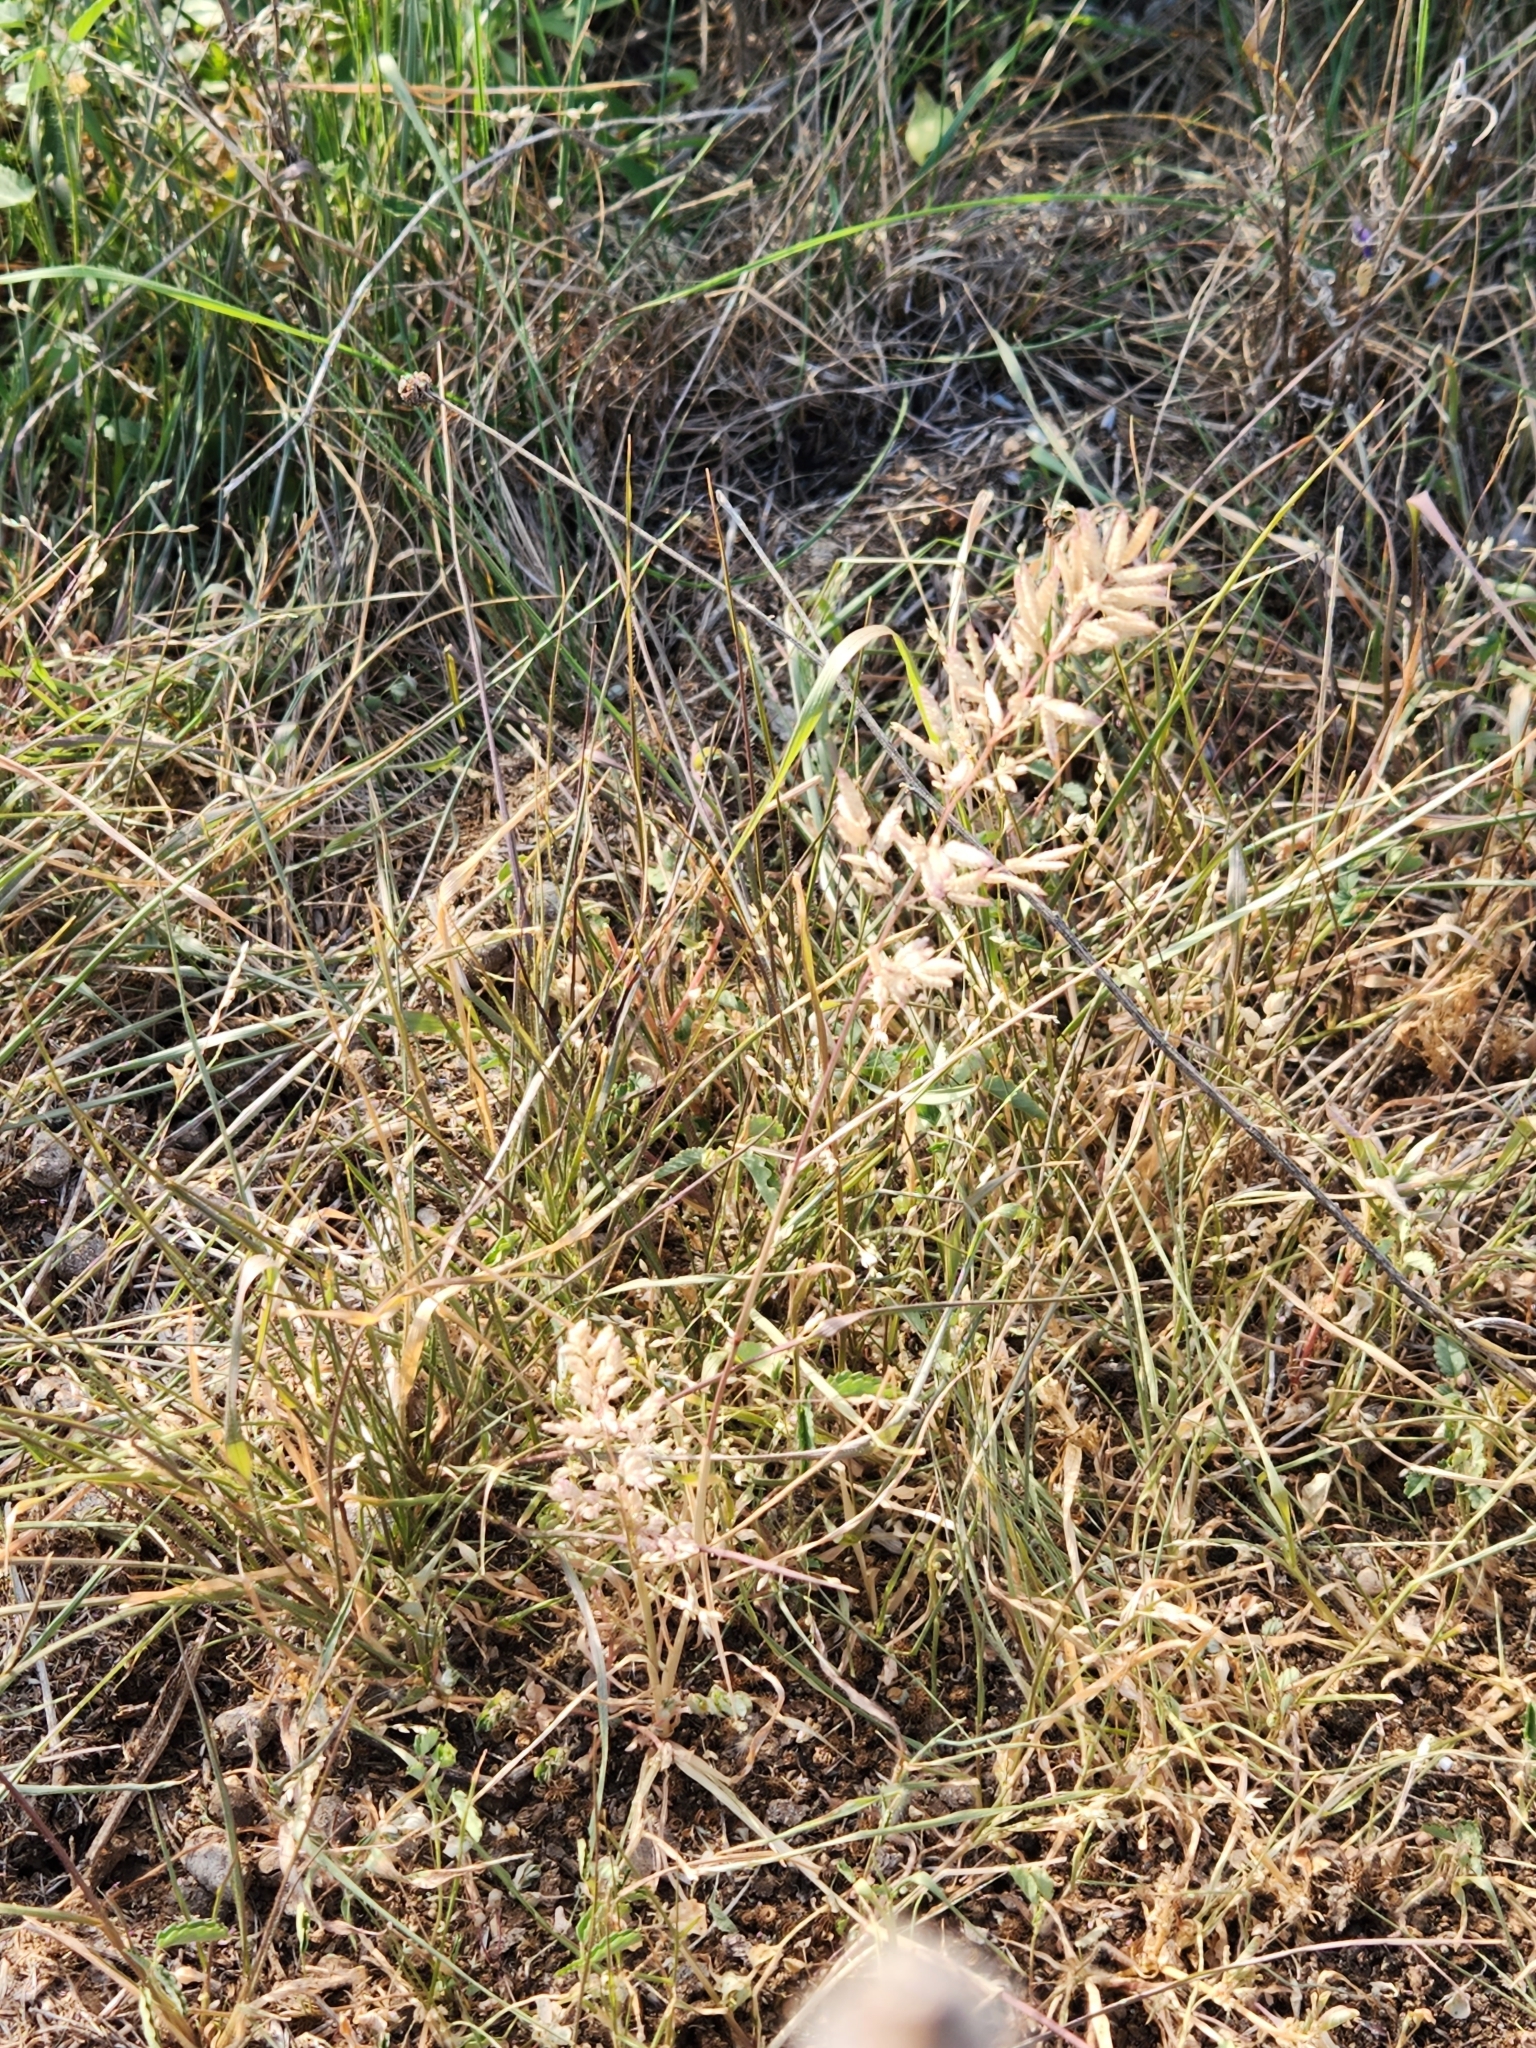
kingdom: Plantae
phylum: Tracheophyta
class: Liliopsida
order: Poales
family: Poaceae
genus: Eragrostis
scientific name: Eragrostis cilianensis
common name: Stinkgrass
